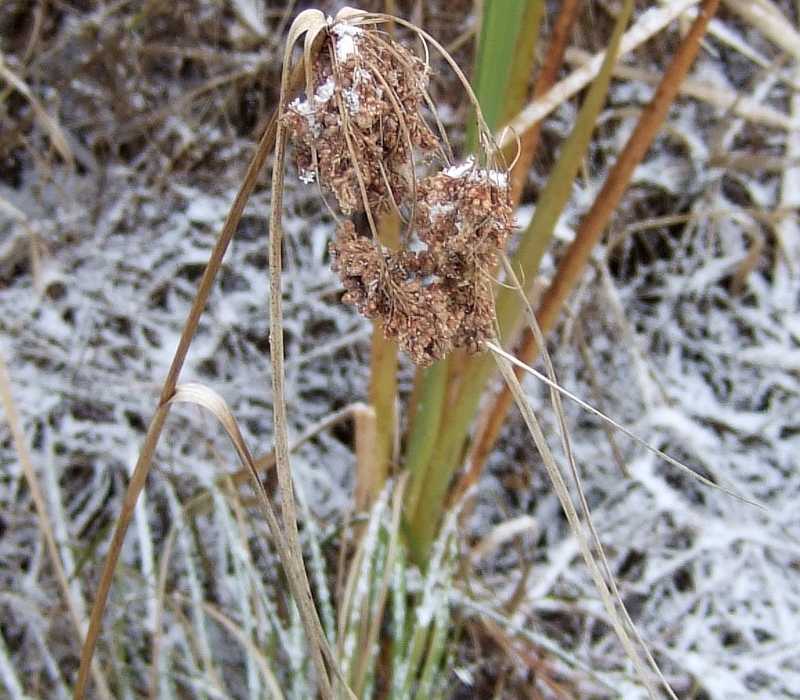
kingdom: Plantae
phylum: Tracheophyta
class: Liliopsida
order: Poales
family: Cyperaceae
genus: Scirpus
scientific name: Scirpus cyperinus
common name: Black-sheathed bulrush
